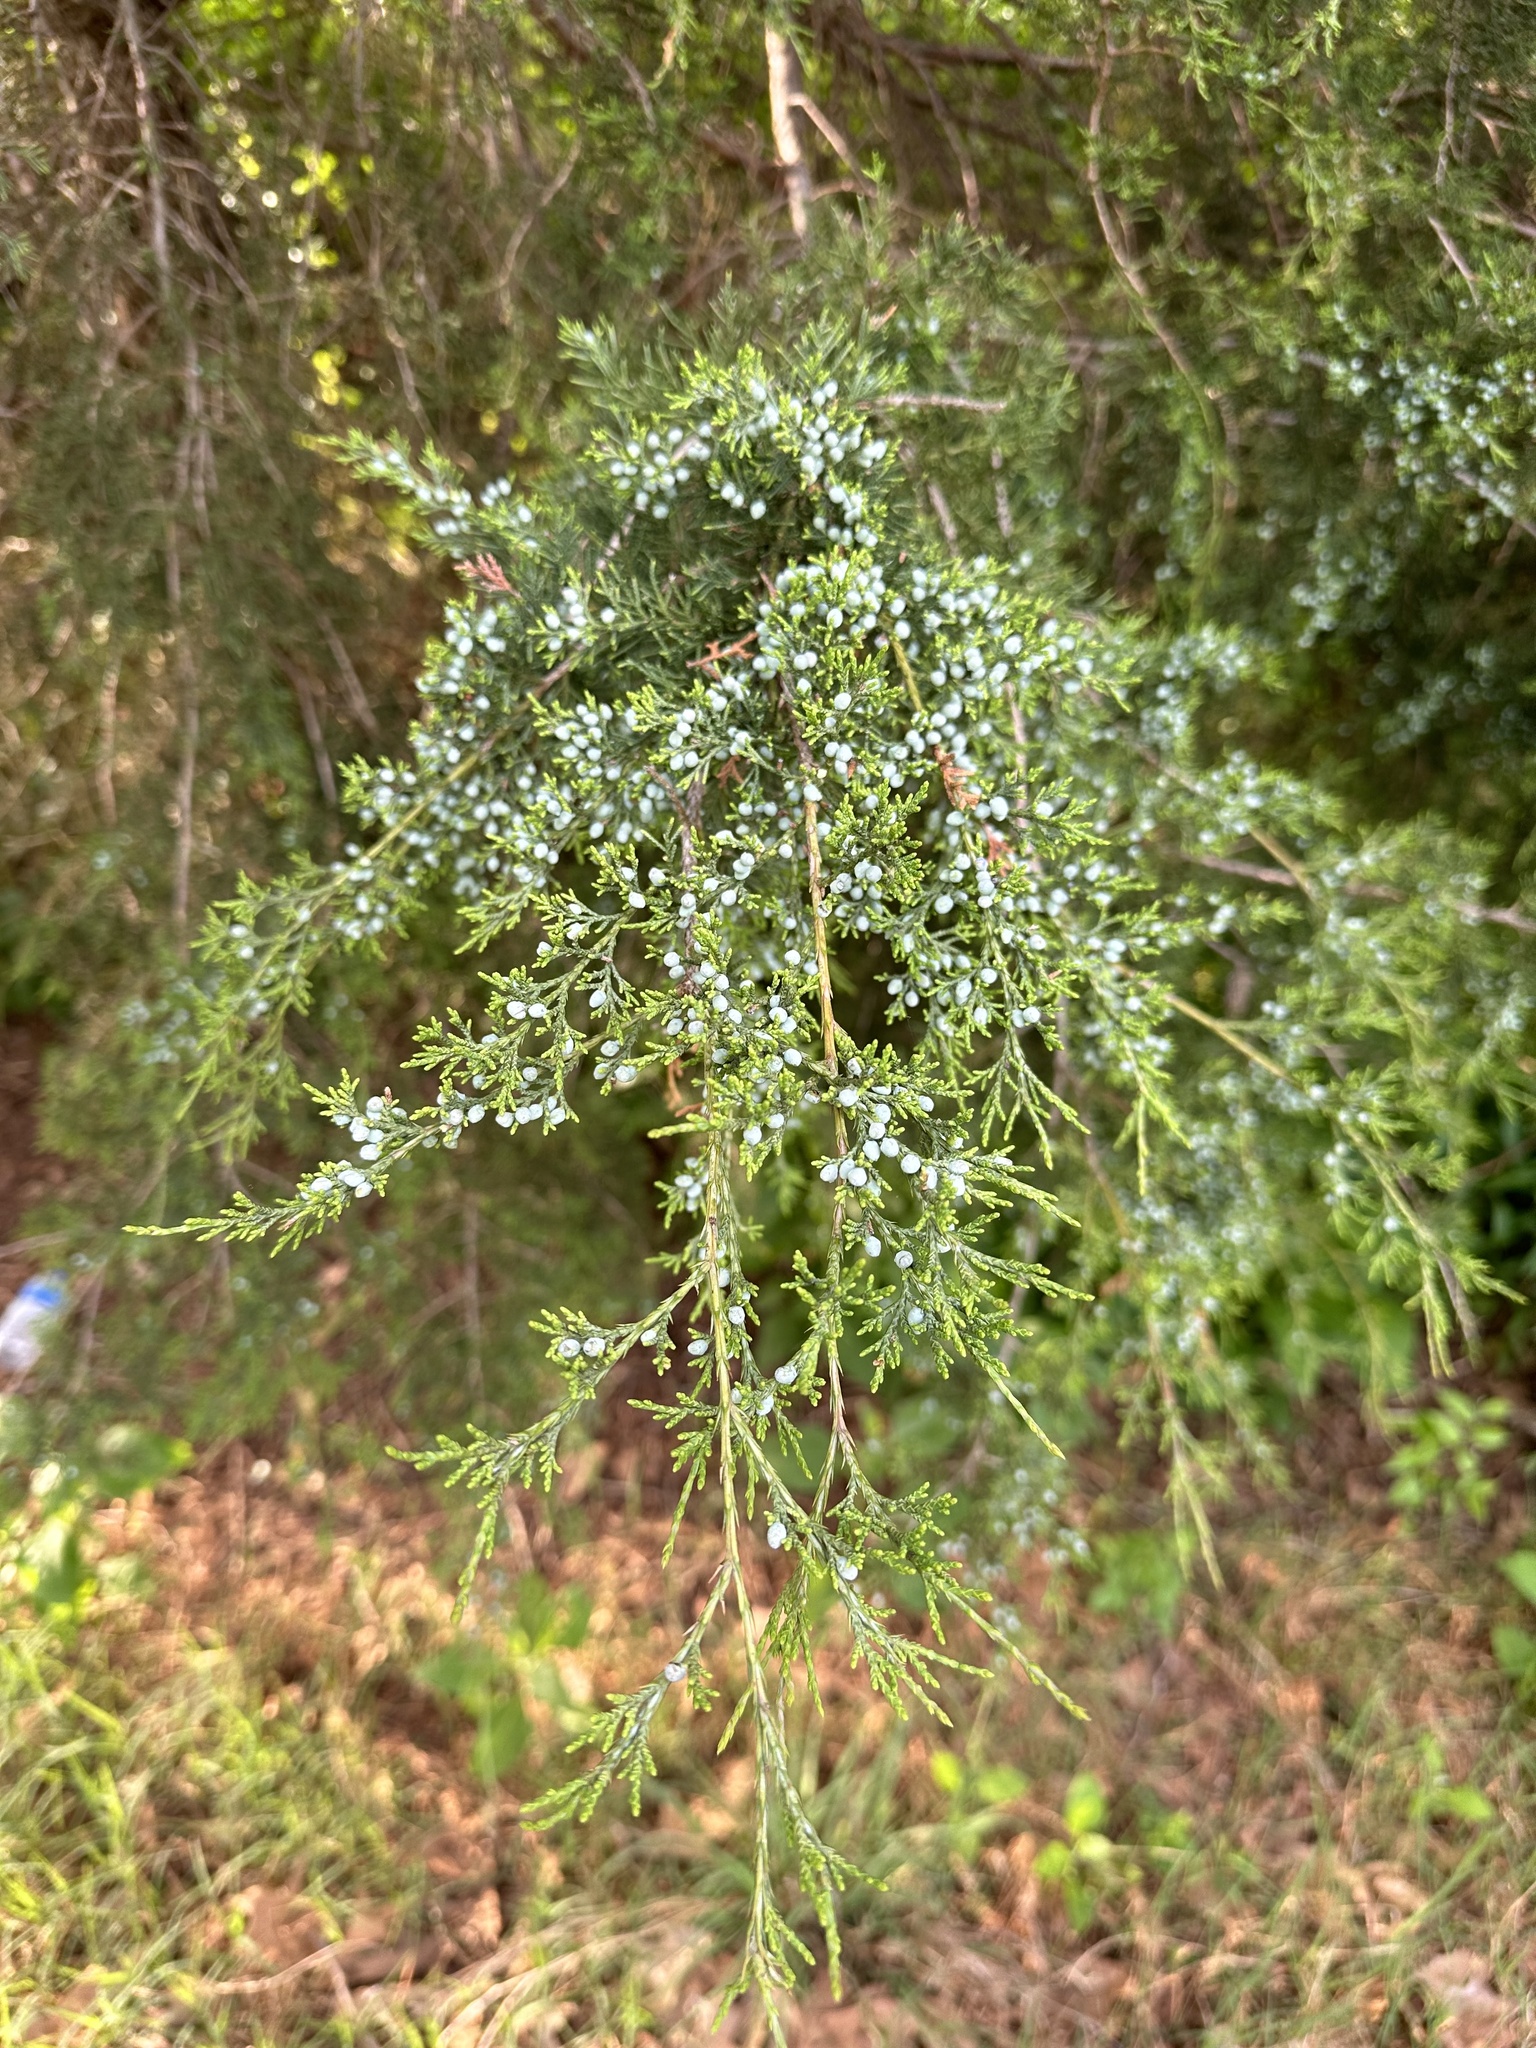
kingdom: Plantae
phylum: Tracheophyta
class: Pinopsida
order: Pinales
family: Cupressaceae
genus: Juniperus
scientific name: Juniperus virginiana
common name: Red juniper
